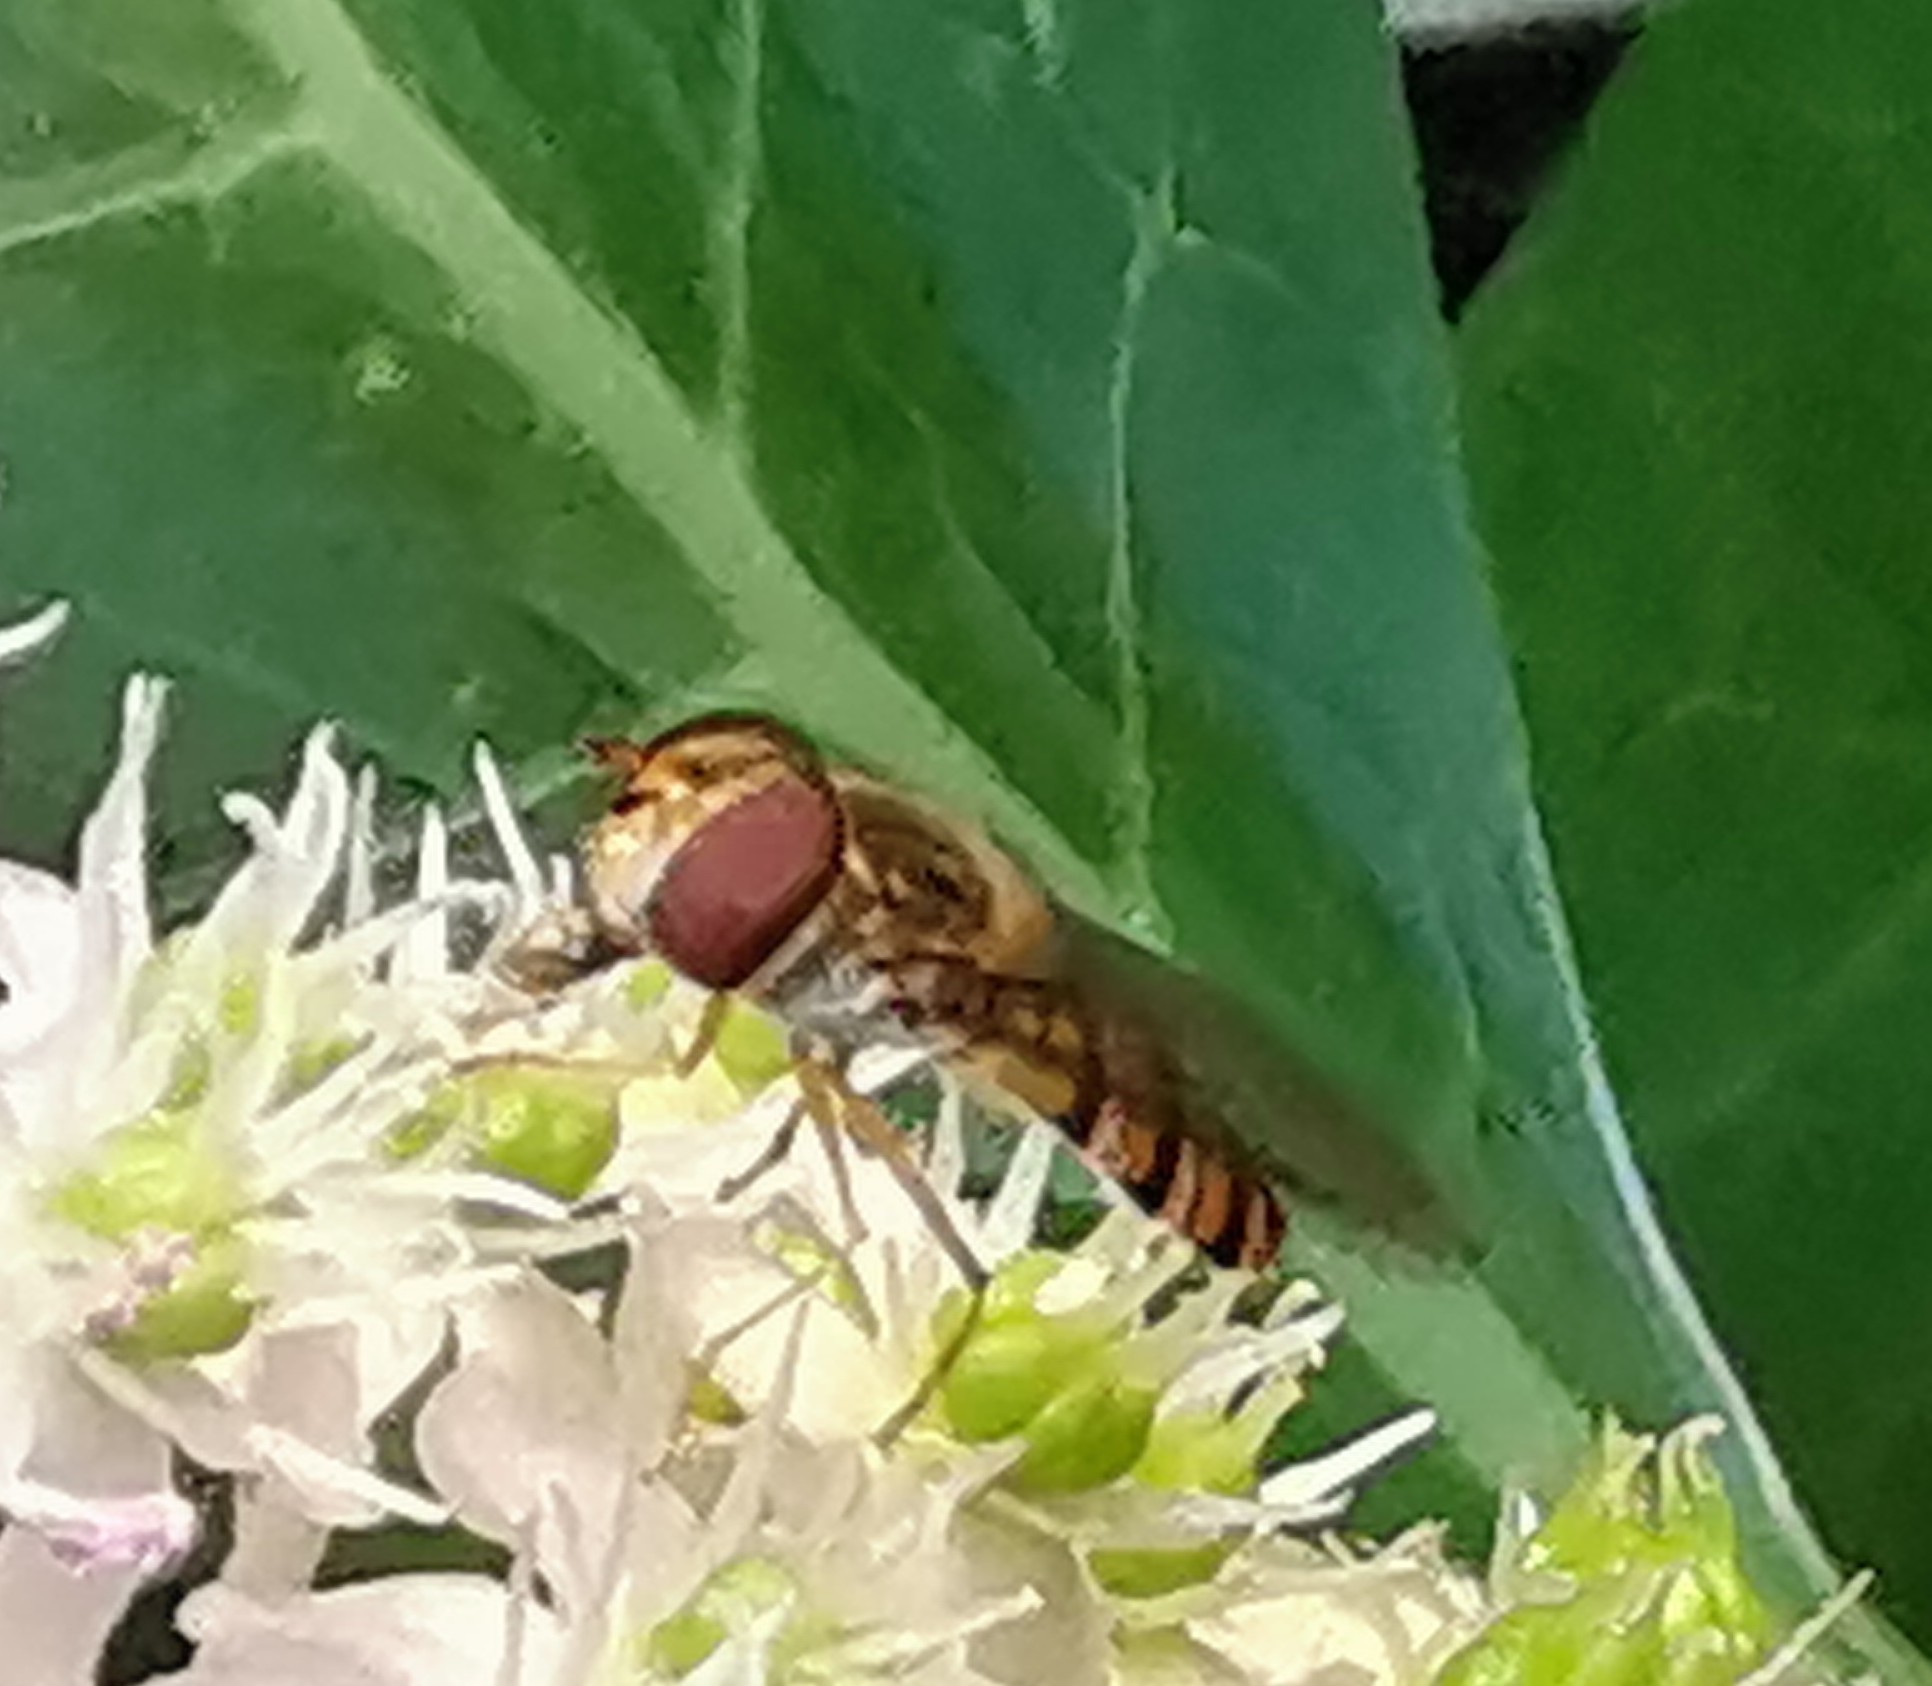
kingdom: Animalia
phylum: Arthropoda
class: Insecta
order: Diptera
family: Syrphidae
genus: Episyrphus
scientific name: Episyrphus balteatus
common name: Marmalade hoverfly
